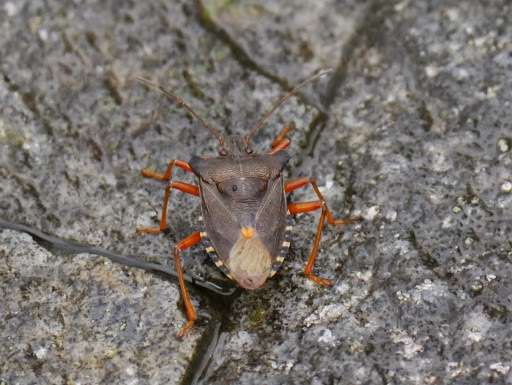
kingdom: Animalia
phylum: Arthropoda
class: Insecta
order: Hemiptera
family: Pentatomidae
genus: Pentatoma
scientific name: Pentatoma rufipes
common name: Forest bug
